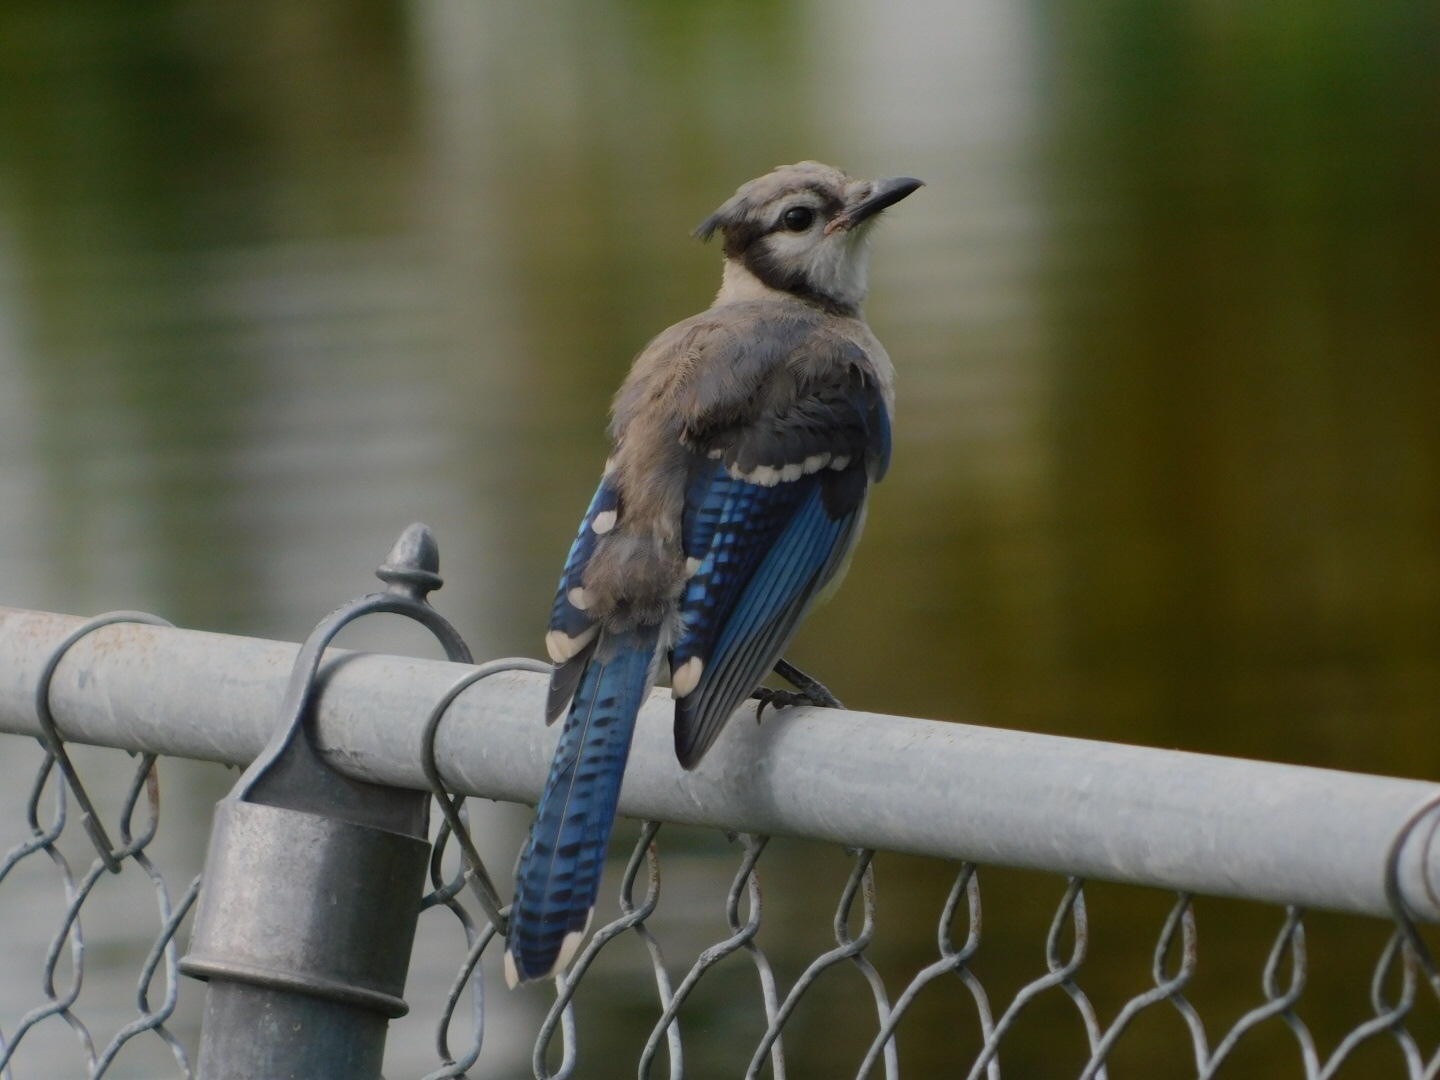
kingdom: Animalia
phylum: Chordata
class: Aves
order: Passeriformes
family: Corvidae
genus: Cyanocitta
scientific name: Cyanocitta cristata
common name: Blue jay
